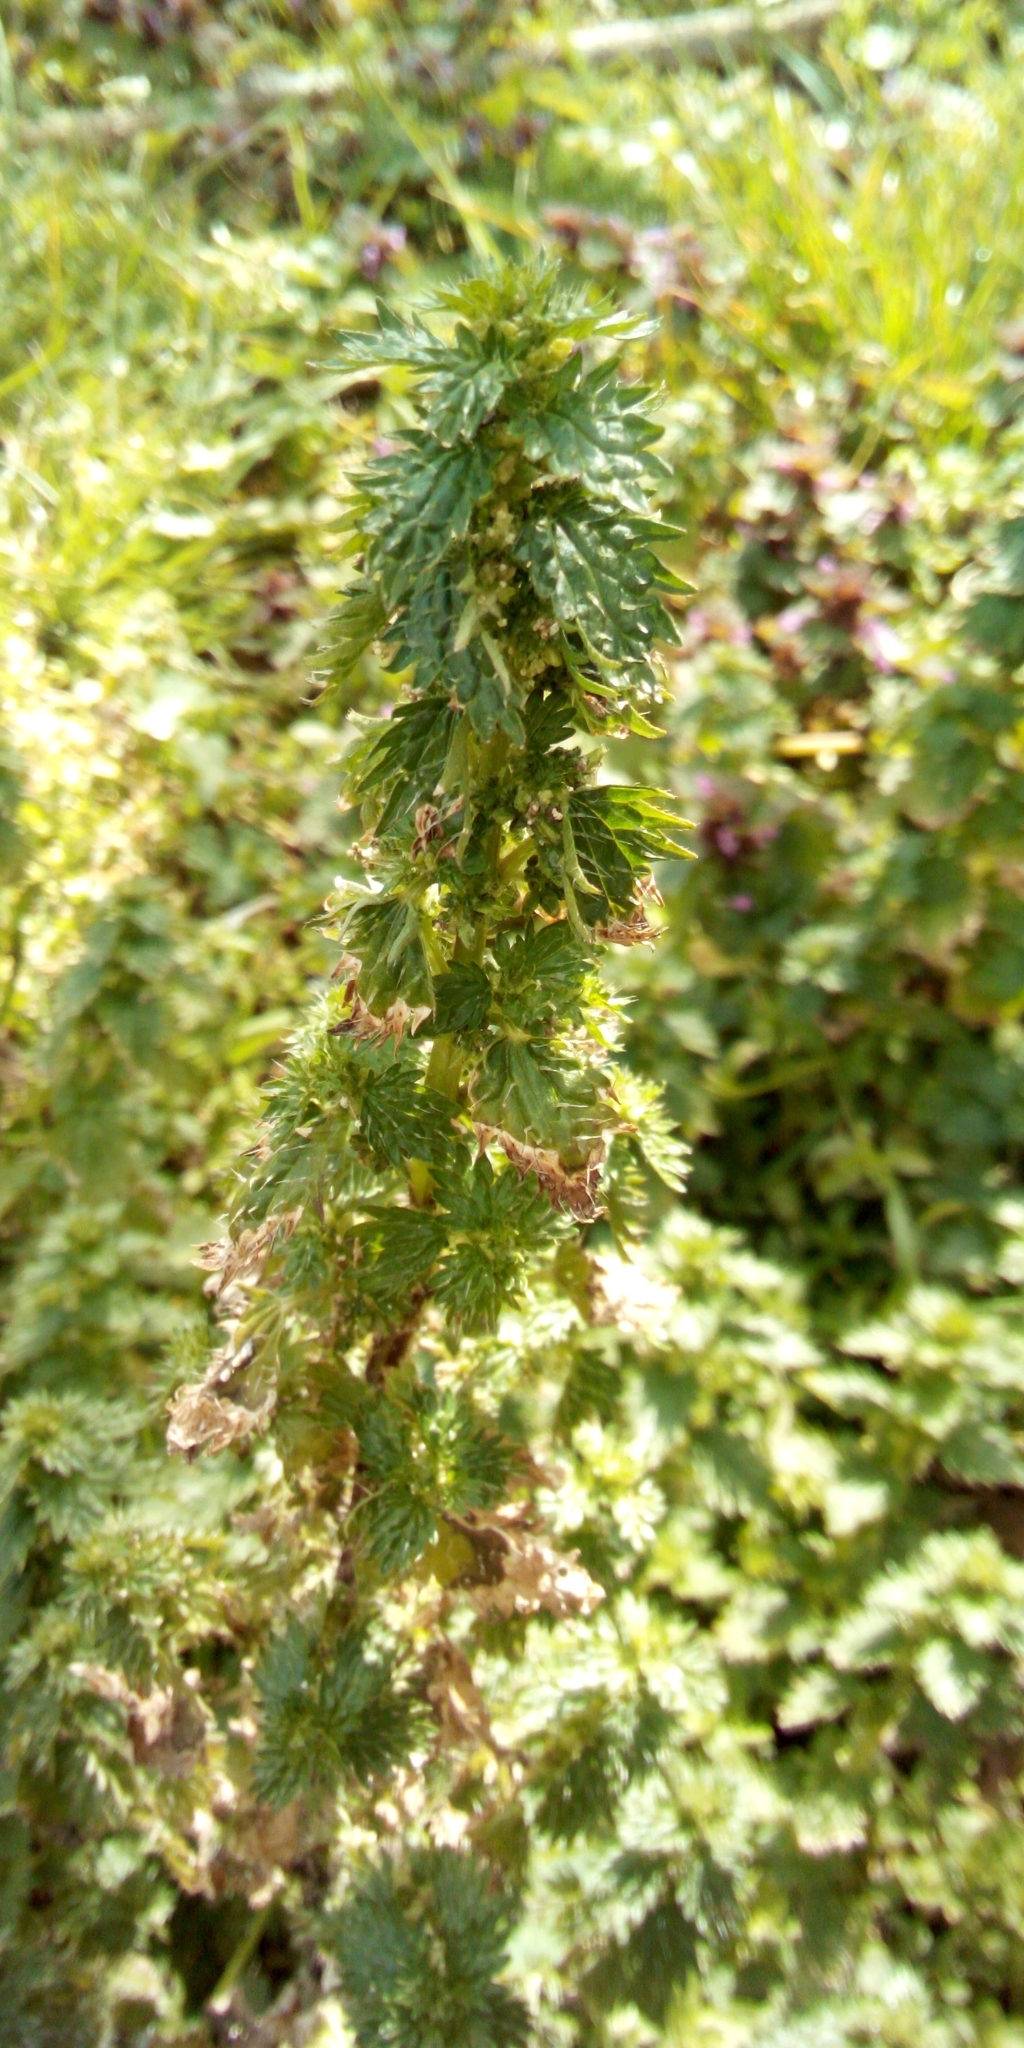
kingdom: Plantae
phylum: Tracheophyta
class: Magnoliopsida
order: Rosales
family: Urticaceae
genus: Urtica
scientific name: Urtica urens
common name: Dwarf nettle
